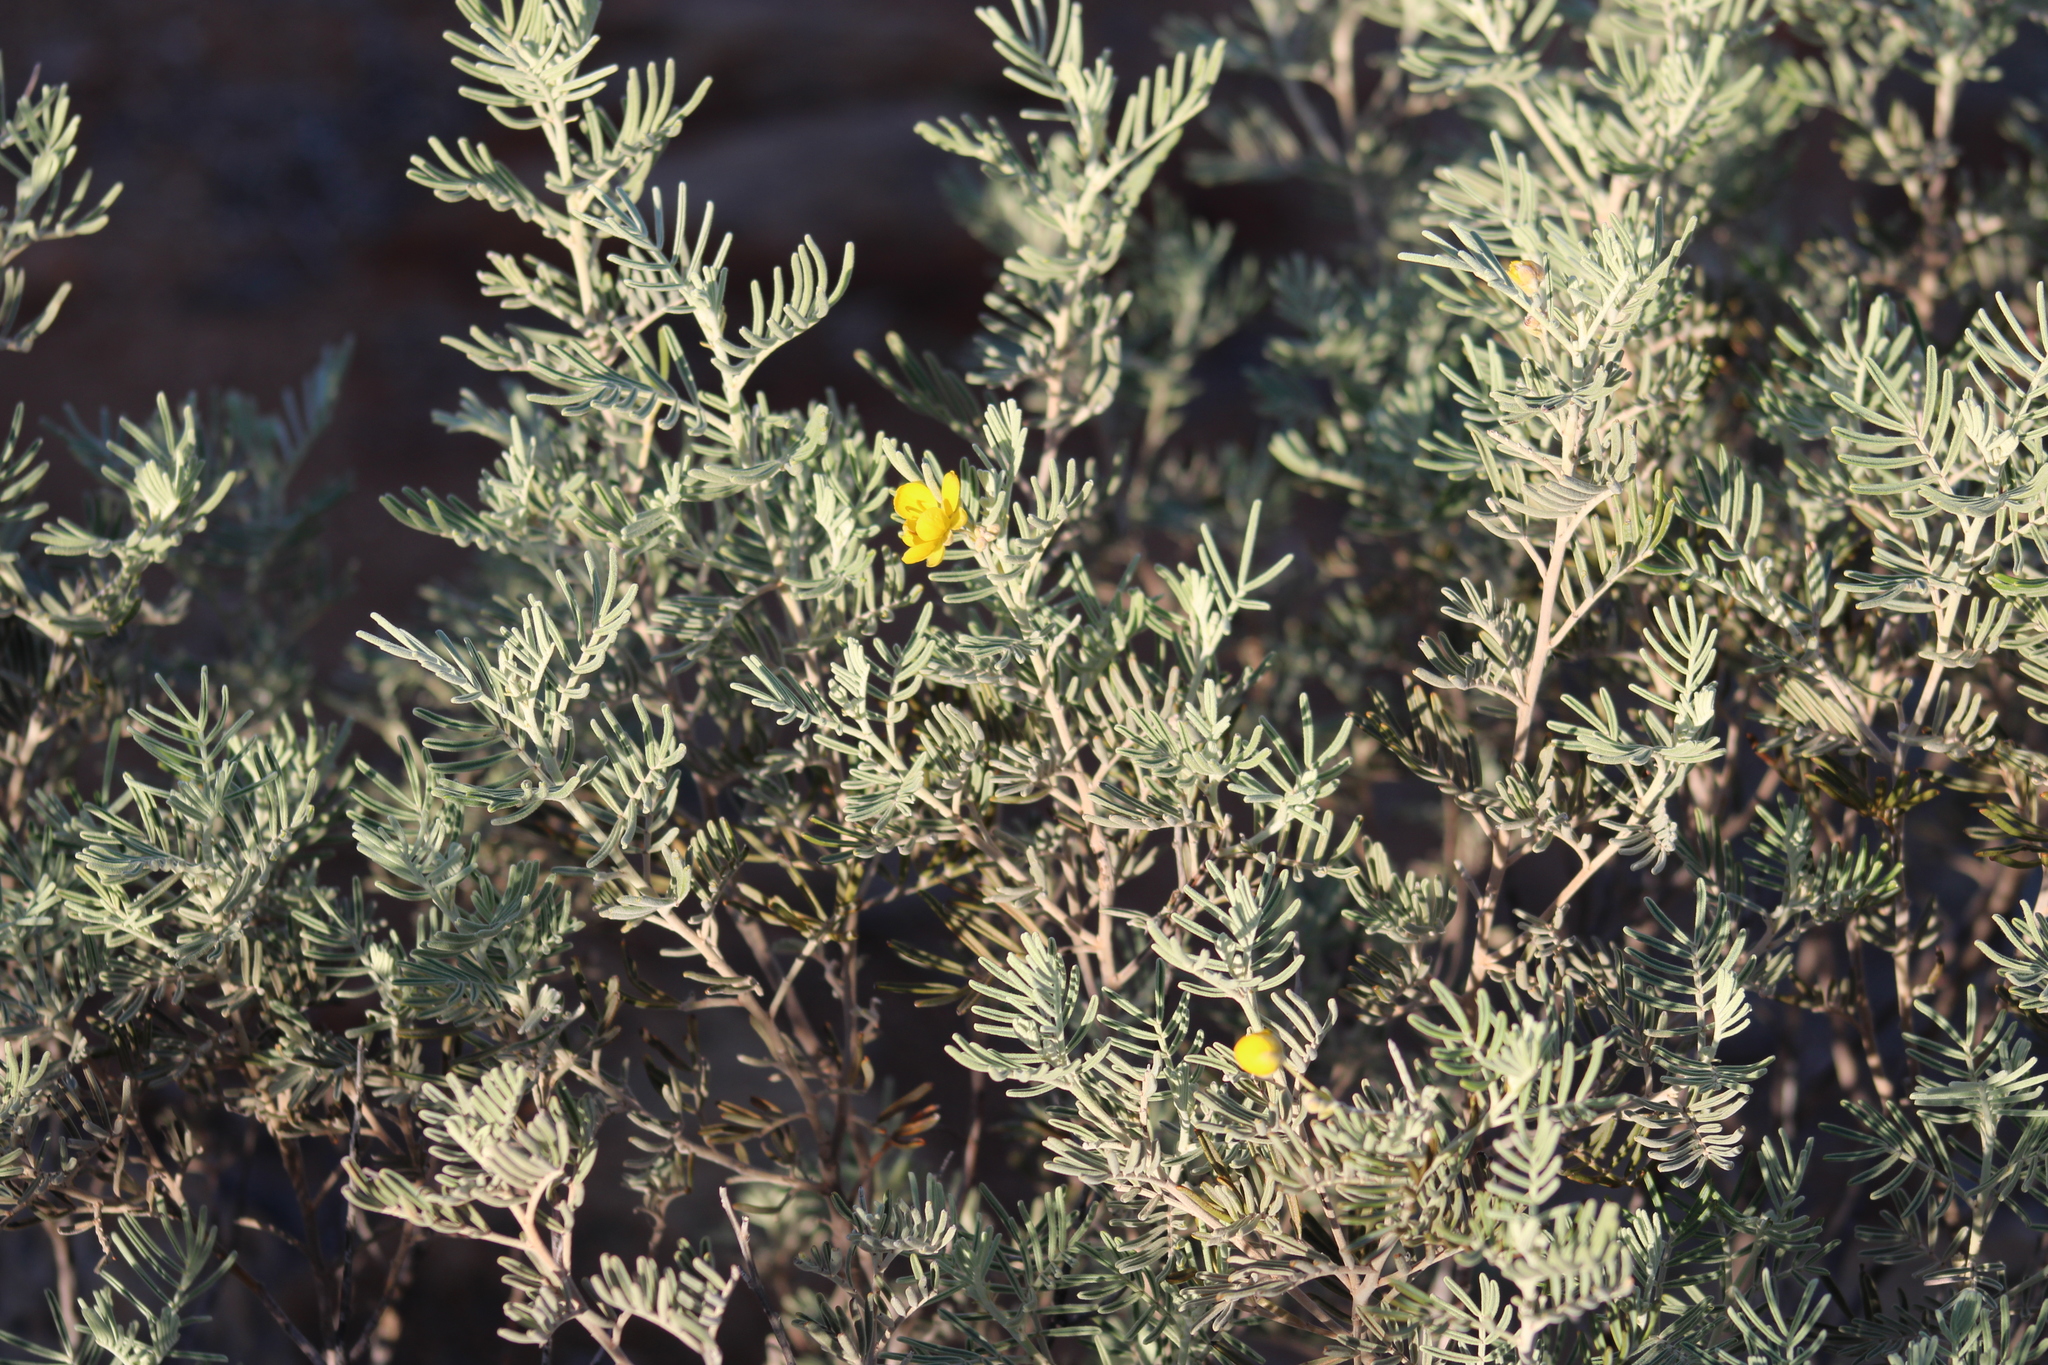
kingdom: Plantae
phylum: Tracheophyta
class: Magnoliopsida
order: Fabales
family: Fabaceae
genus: Senna
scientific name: Senna artemisioides
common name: Burnt-leaved acacia
